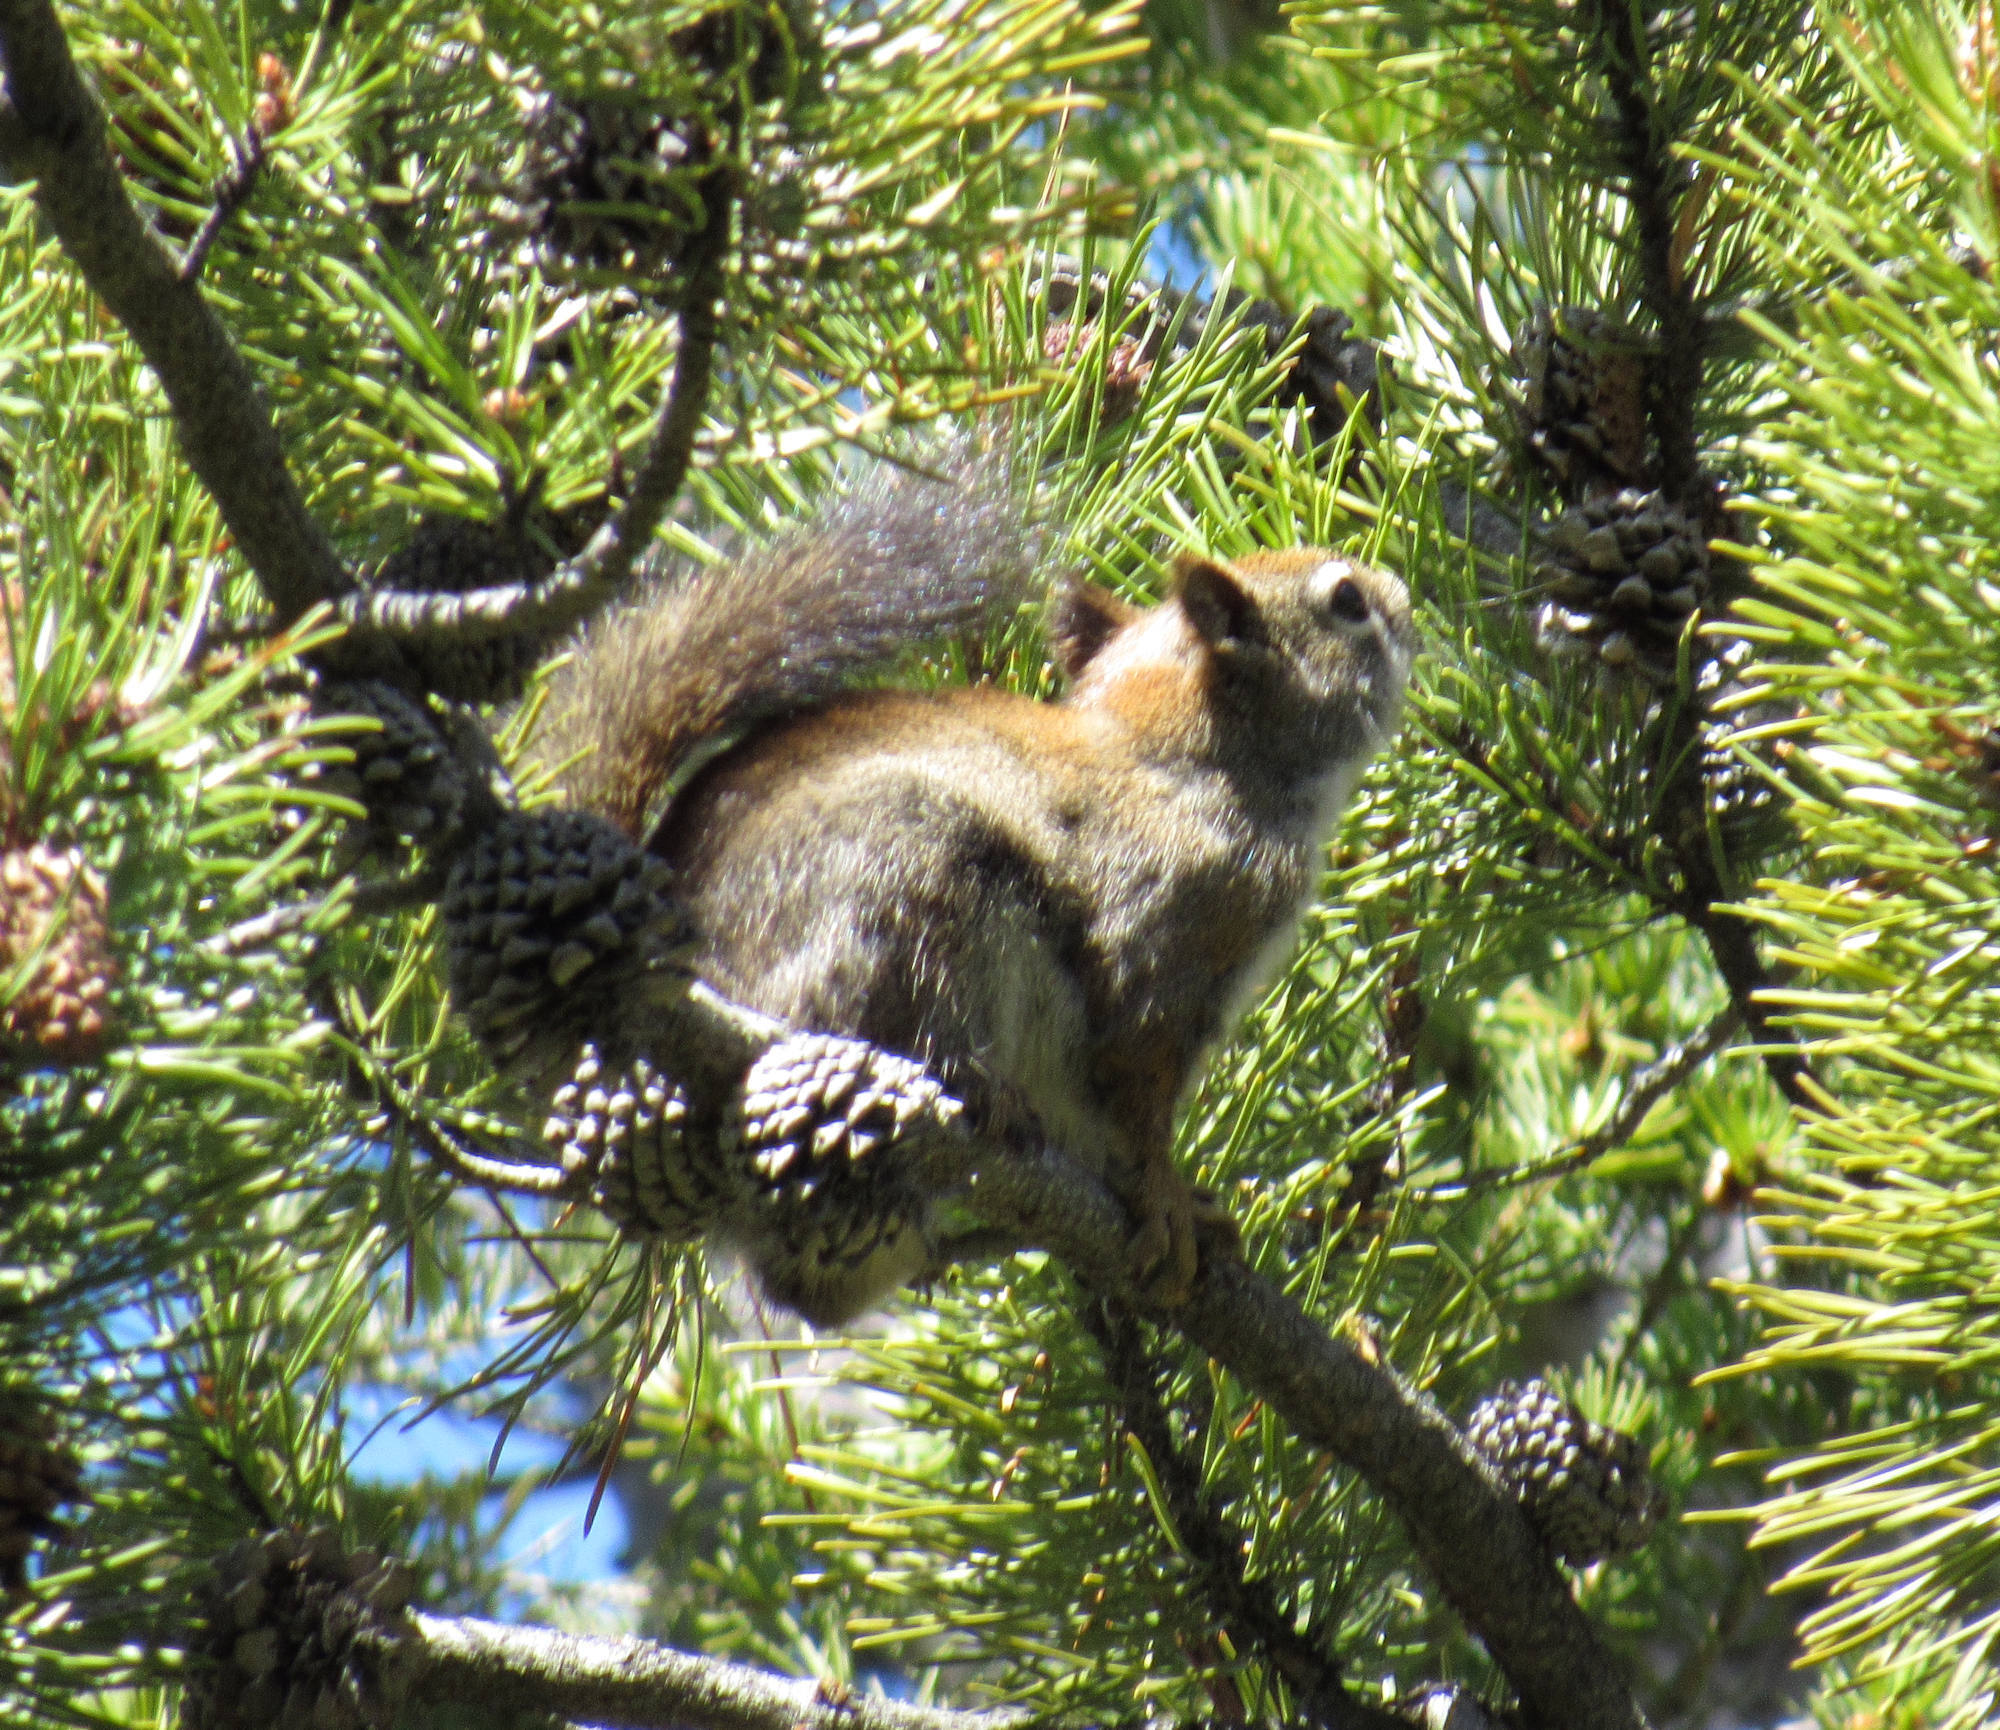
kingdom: Animalia
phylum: Chordata
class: Mammalia
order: Rodentia
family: Sciuridae
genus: Tamiasciurus
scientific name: Tamiasciurus hudsonicus
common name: Red squirrel
